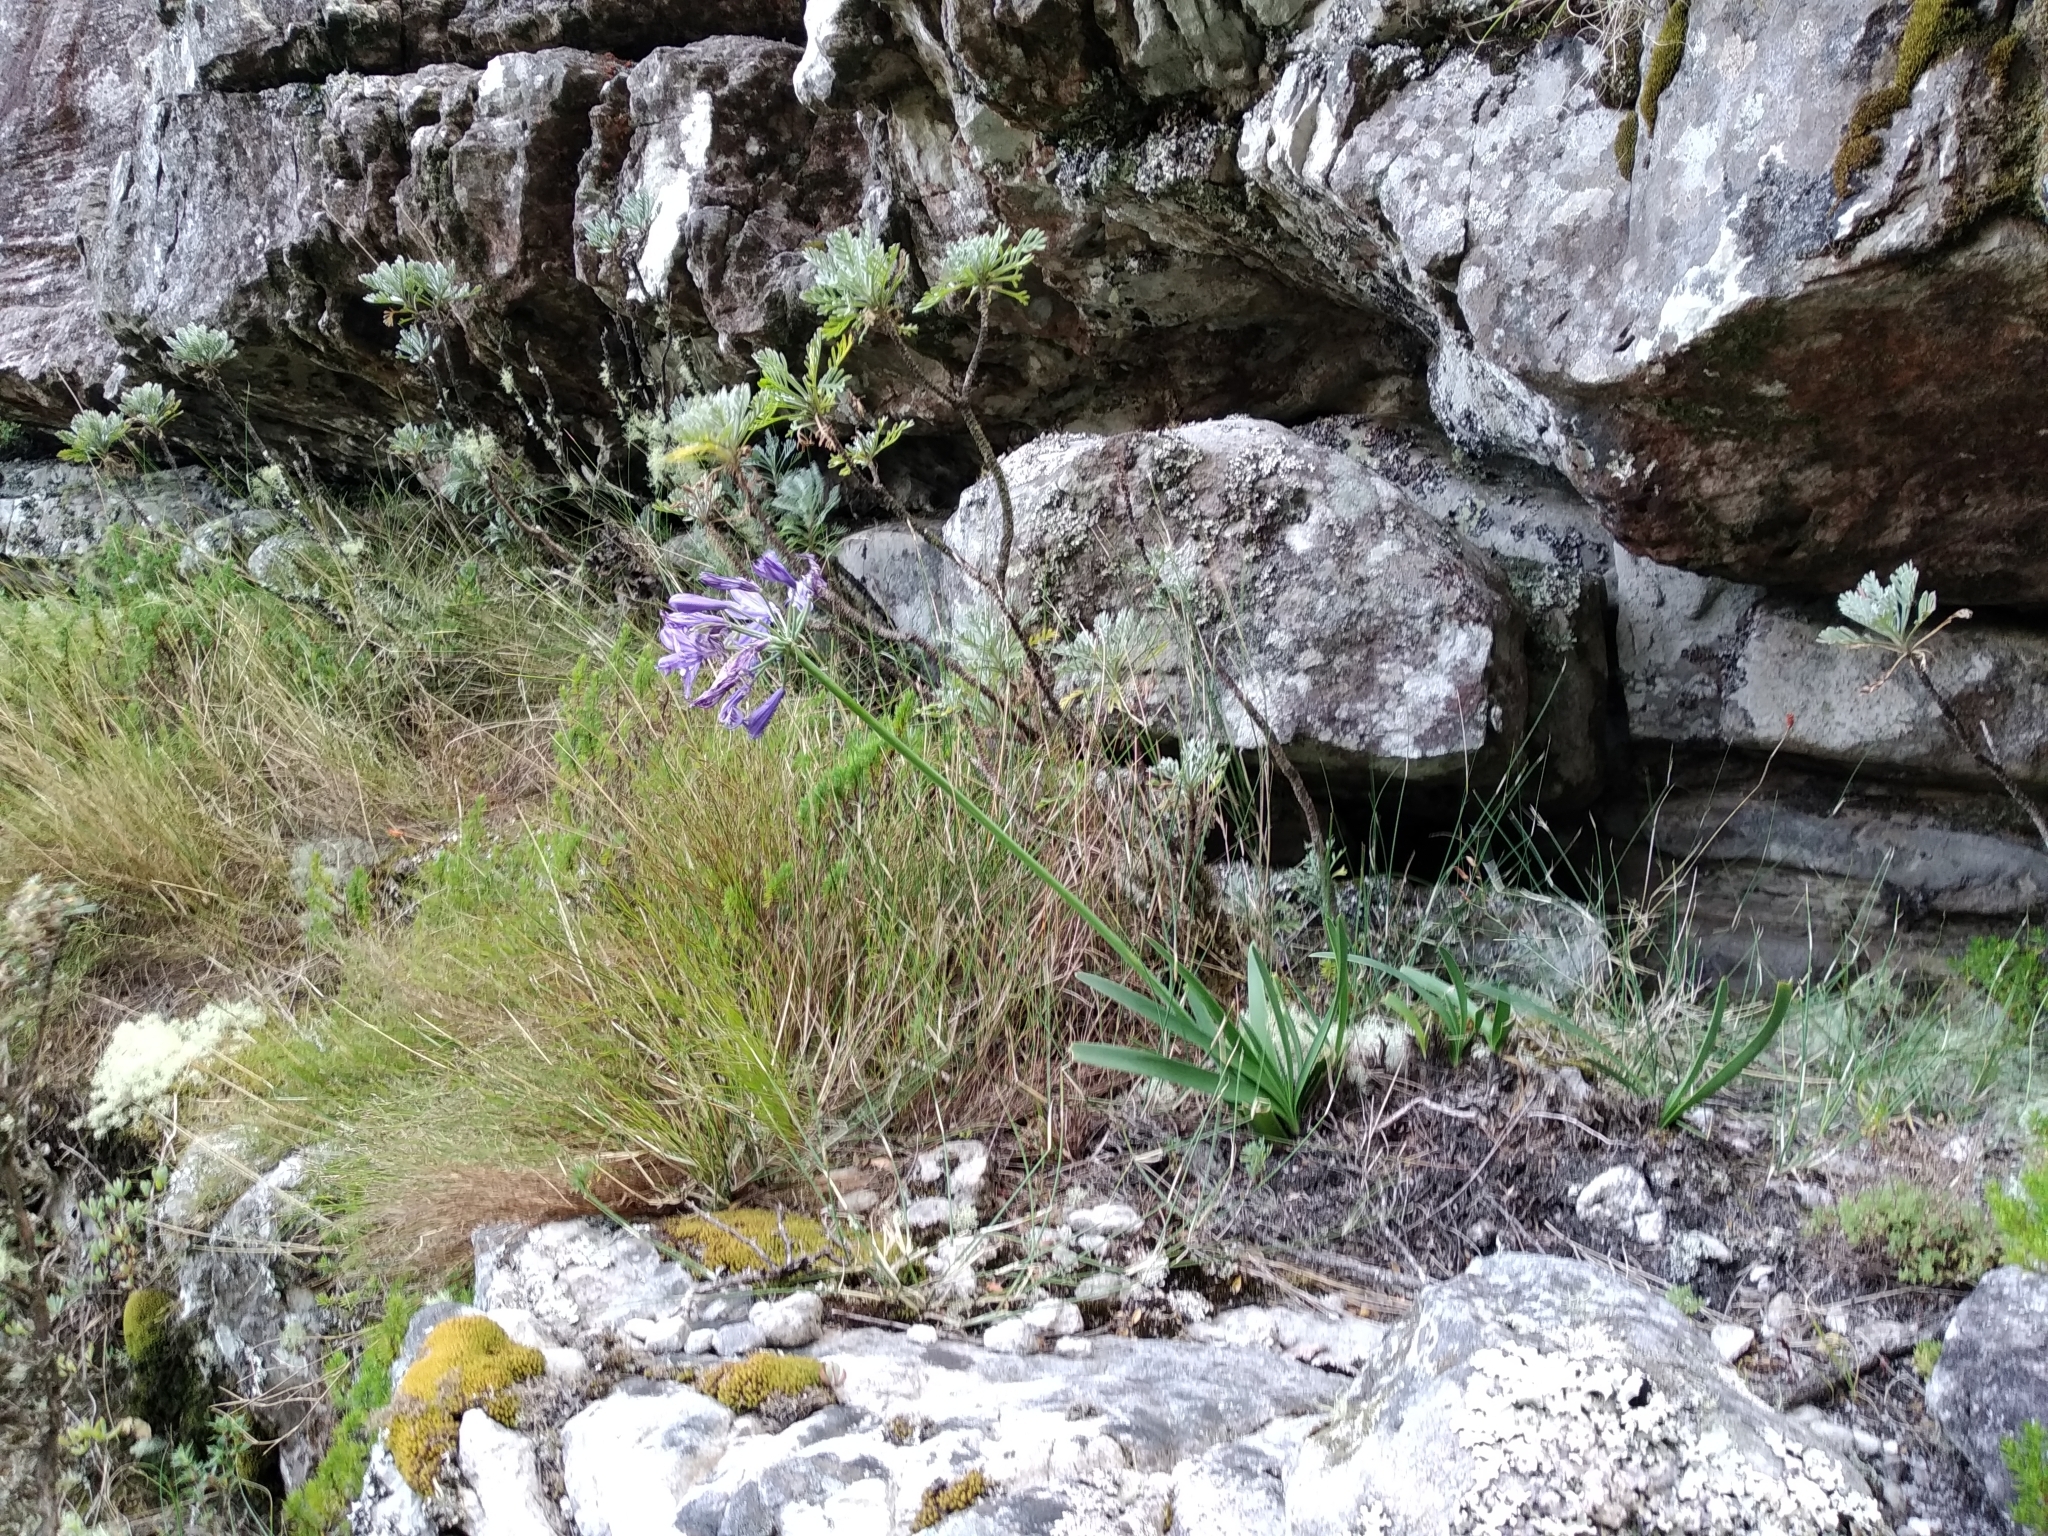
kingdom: Plantae
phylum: Tracheophyta
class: Liliopsida
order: Asparagales
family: Amaryllidaceae
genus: Agapanthus
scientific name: Agapanthus africanus
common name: Lily-of-the-nile
